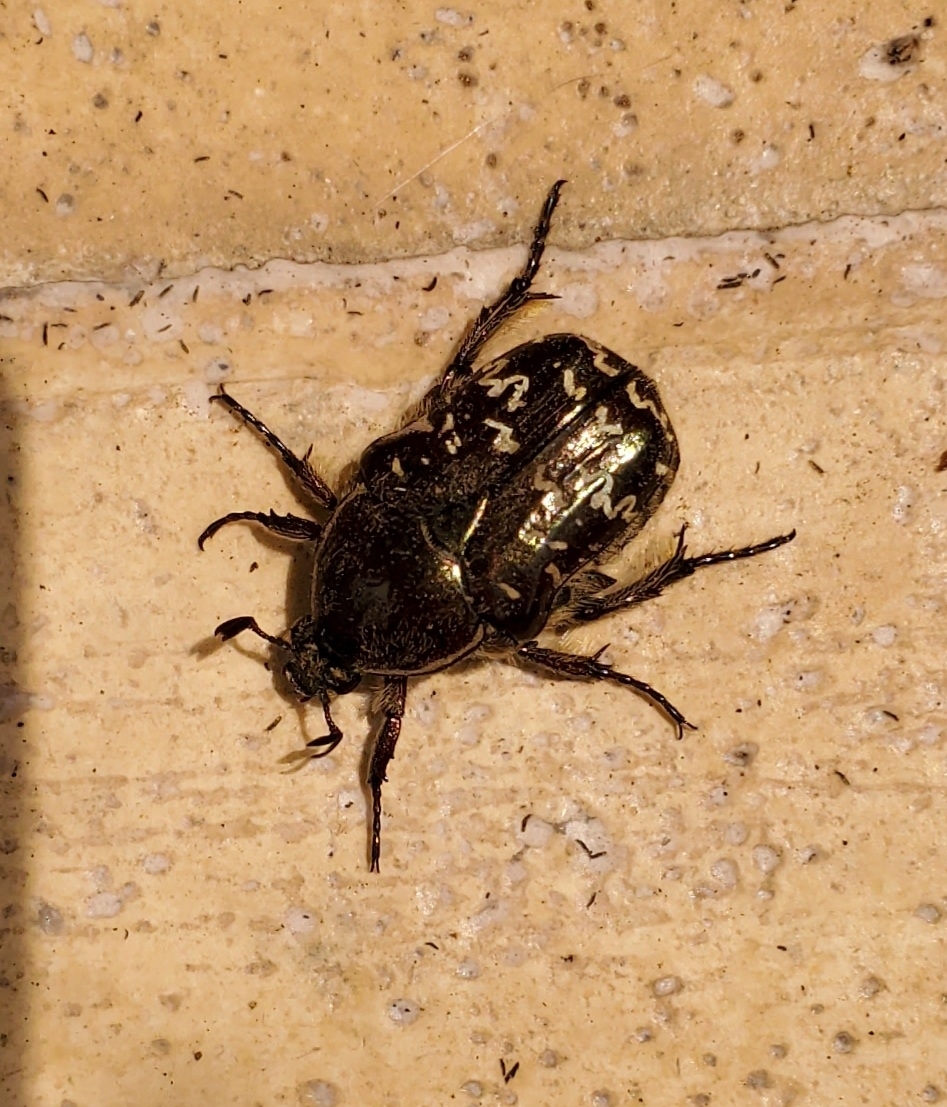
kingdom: Animalia
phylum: Arthropoda
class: Insecta
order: Coleoptera
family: Scarabaeidae
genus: Euphoria
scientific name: Euphoria sepulcralis
